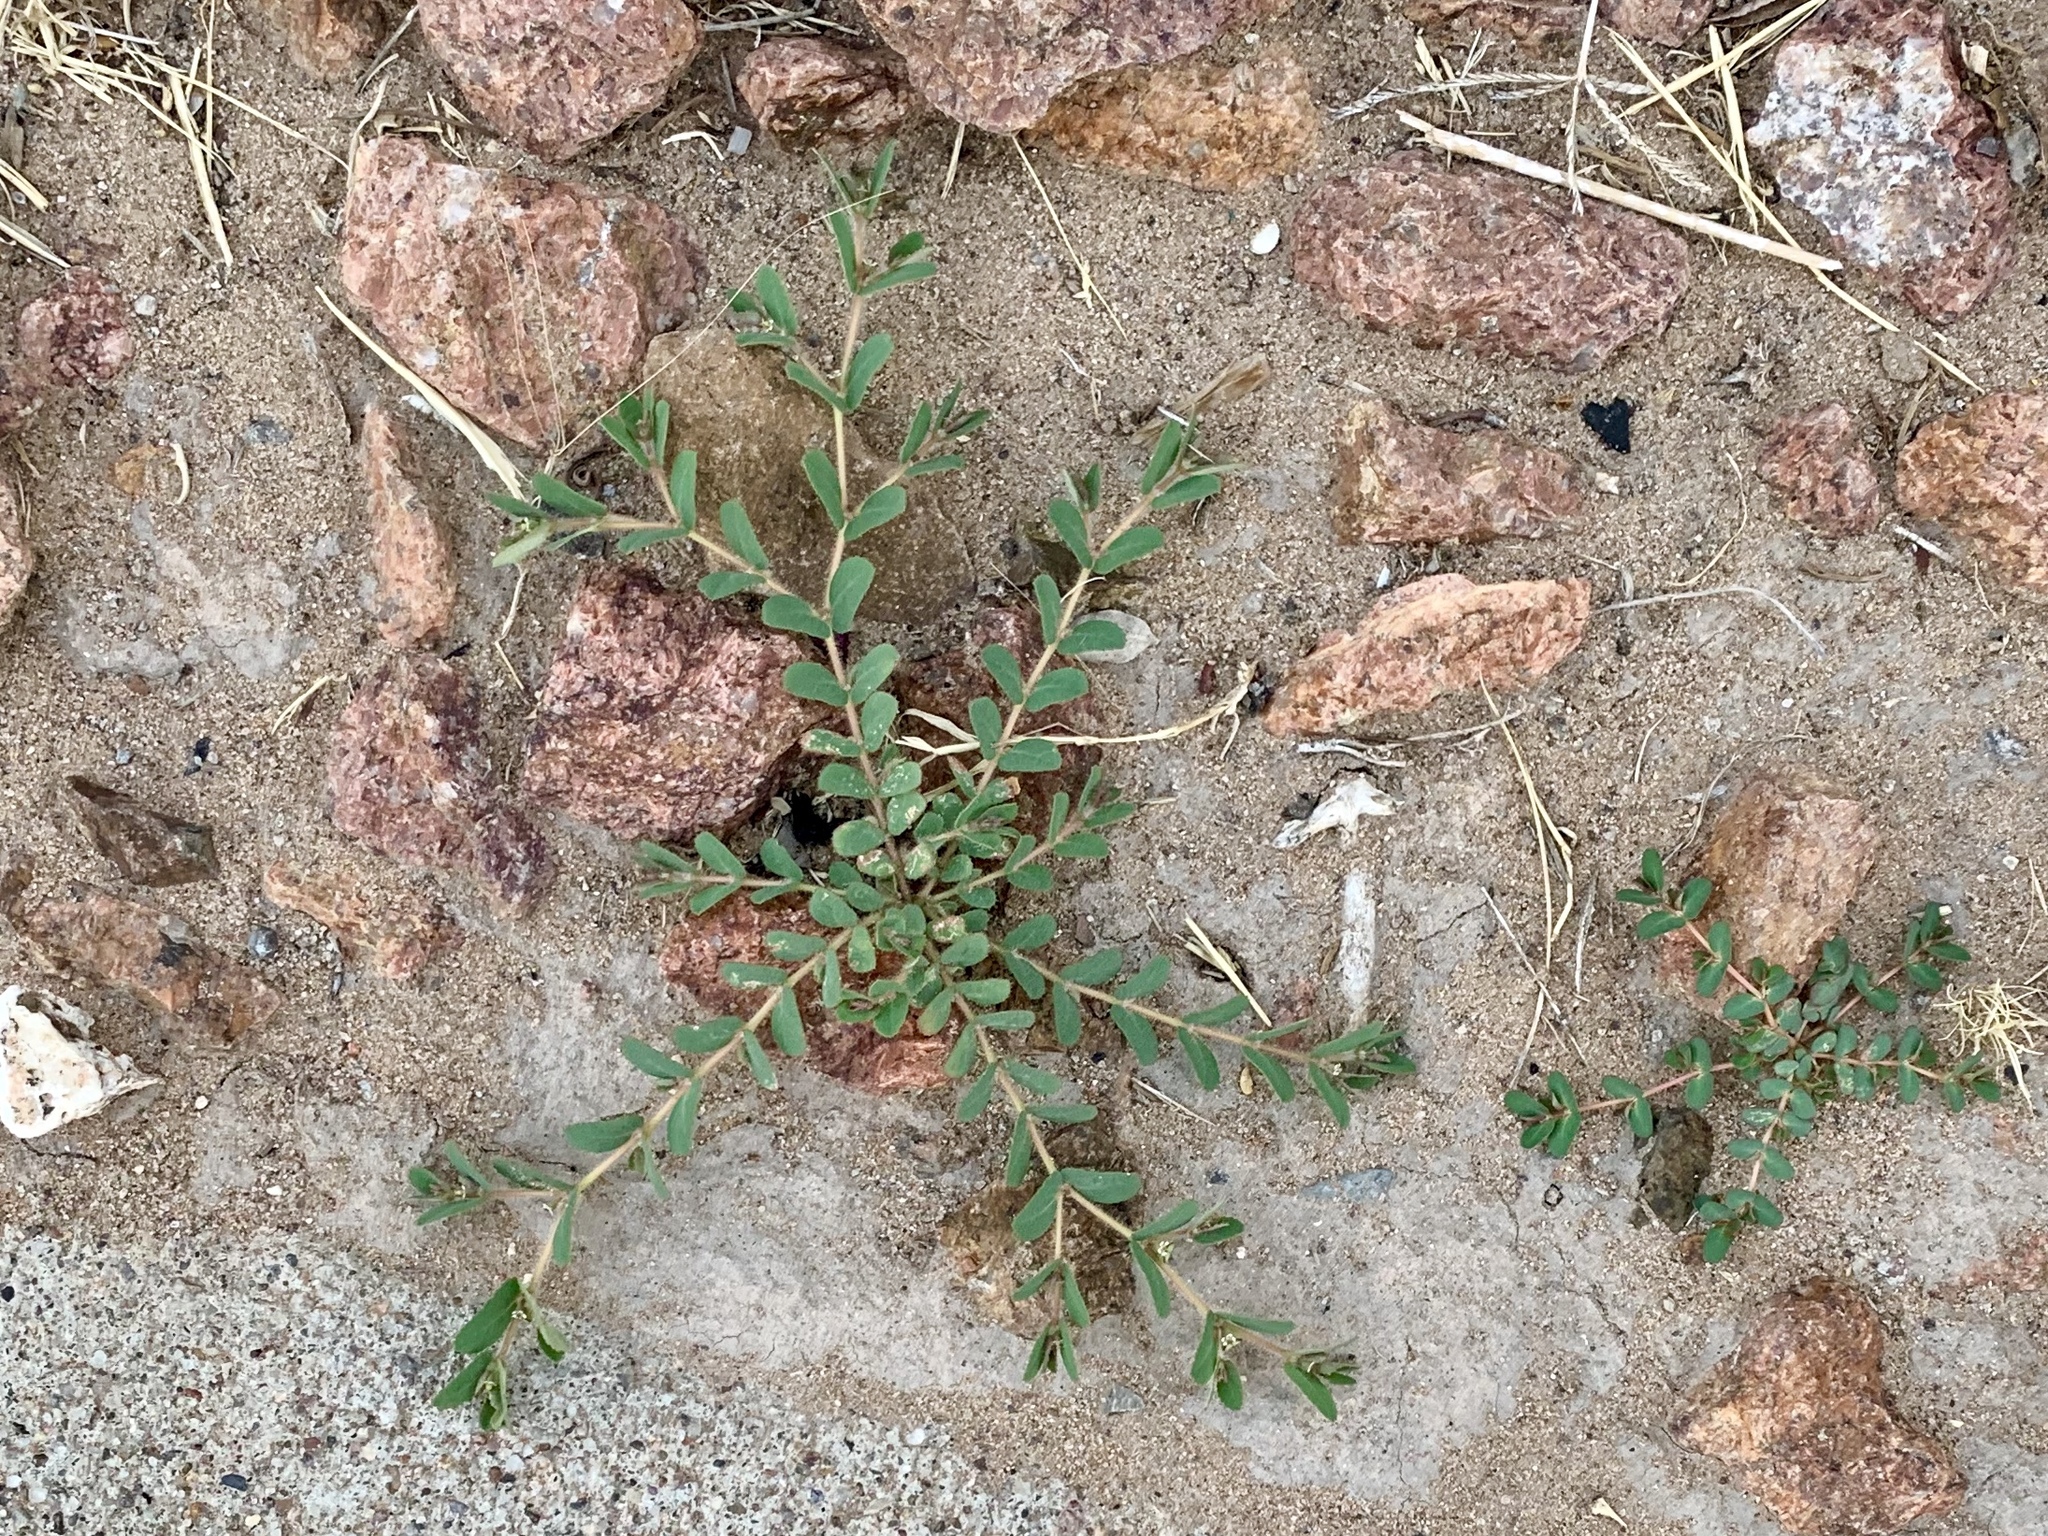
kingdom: Plantae
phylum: Tracheophyta
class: Magnoliopsida
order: Malpighiales
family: Euphorbiaceae
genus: Euphorbia
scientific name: Euphorbia serrula
